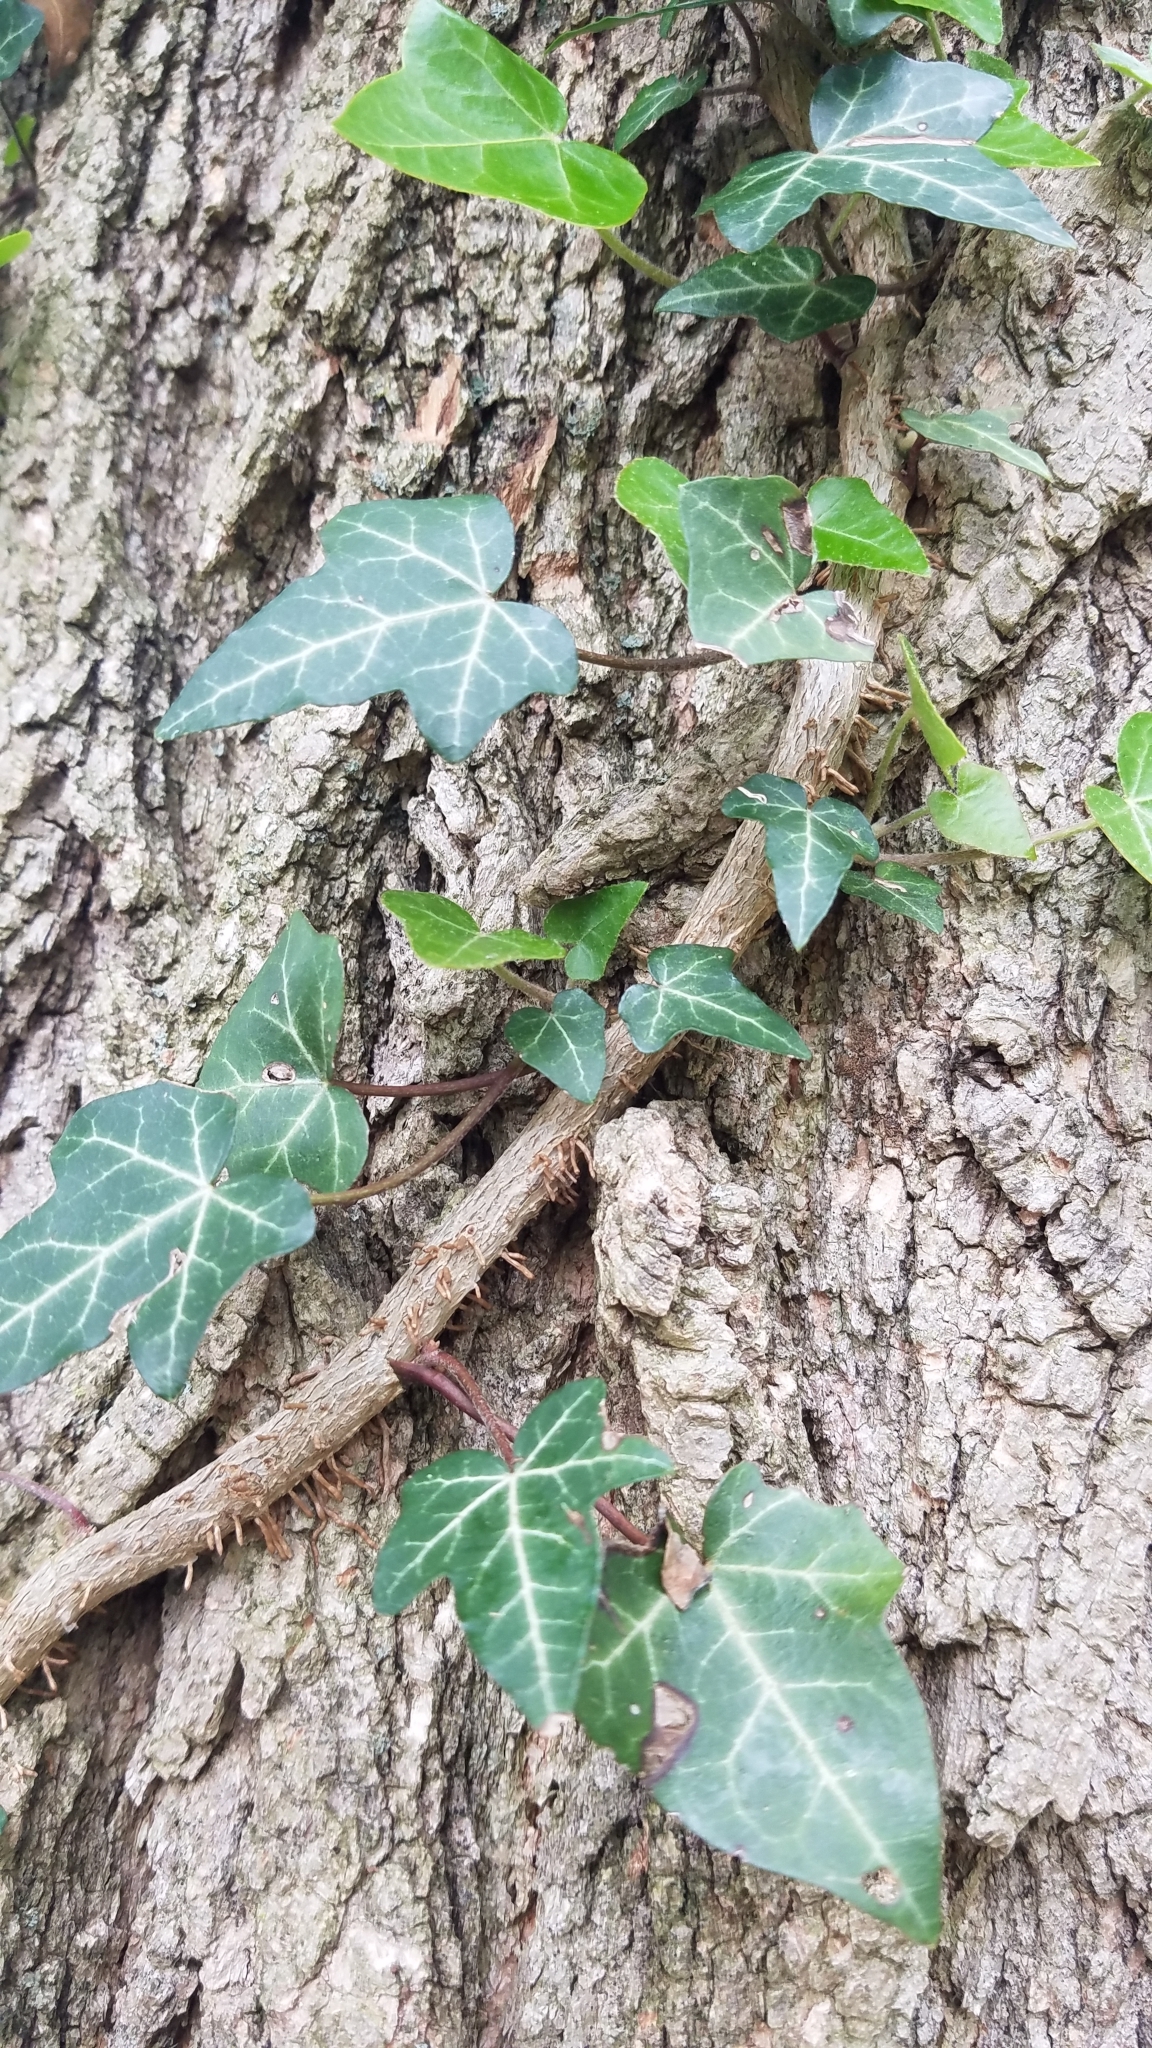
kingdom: Plantae
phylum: Tracheophyta
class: Magnoliopsida
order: Apiales
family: Araliaceae
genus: Hedera
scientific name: Hedera helix
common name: Ivy
